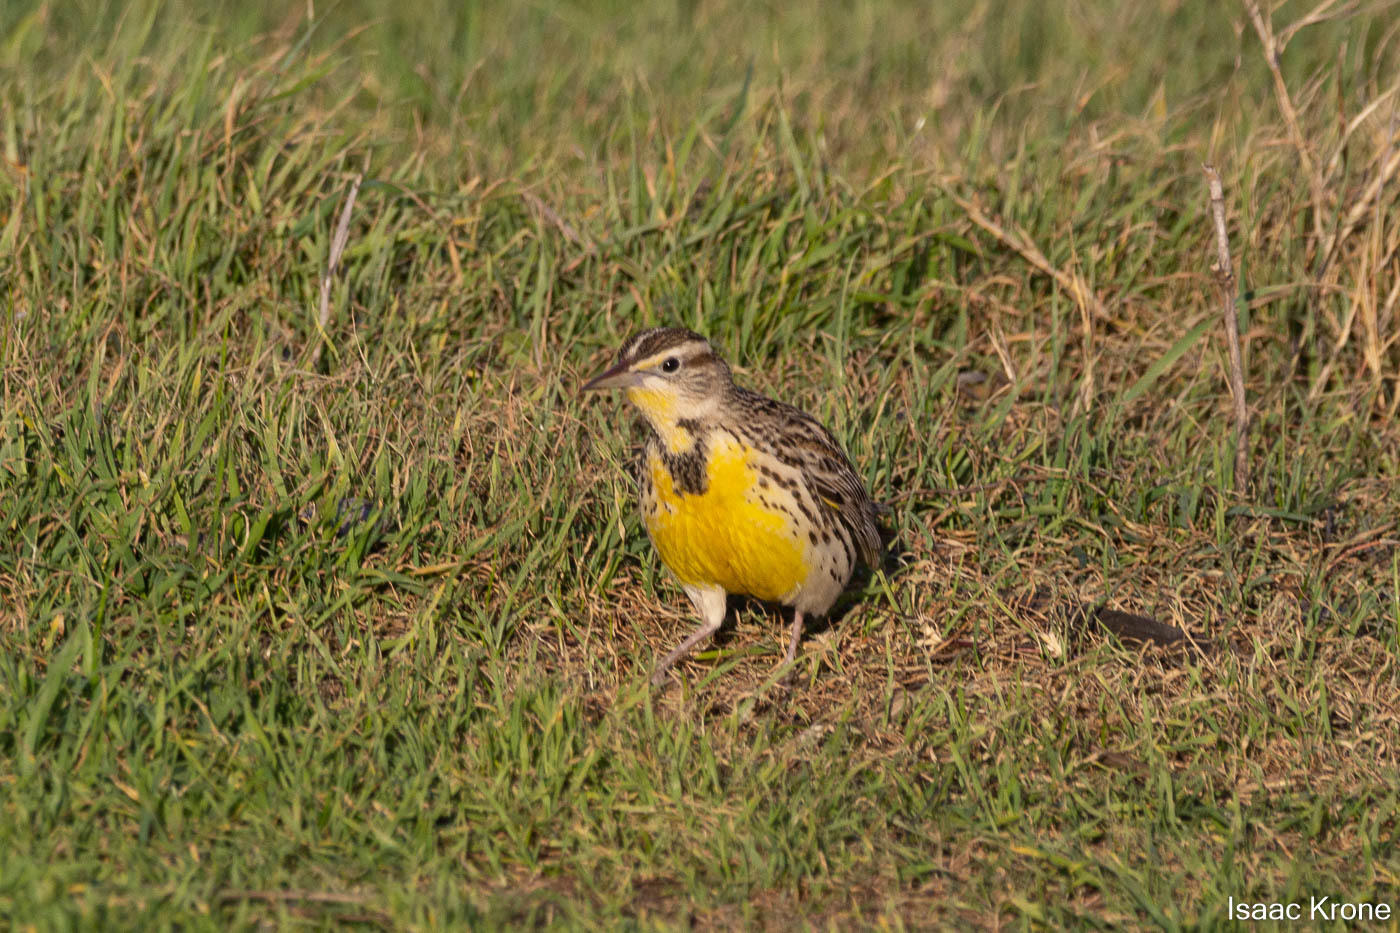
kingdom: Animalia
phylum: Chordata
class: Aves
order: Passeriformes
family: Icteridae
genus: Sturnella
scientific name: Sturnella neglecta
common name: Western meadowlark
